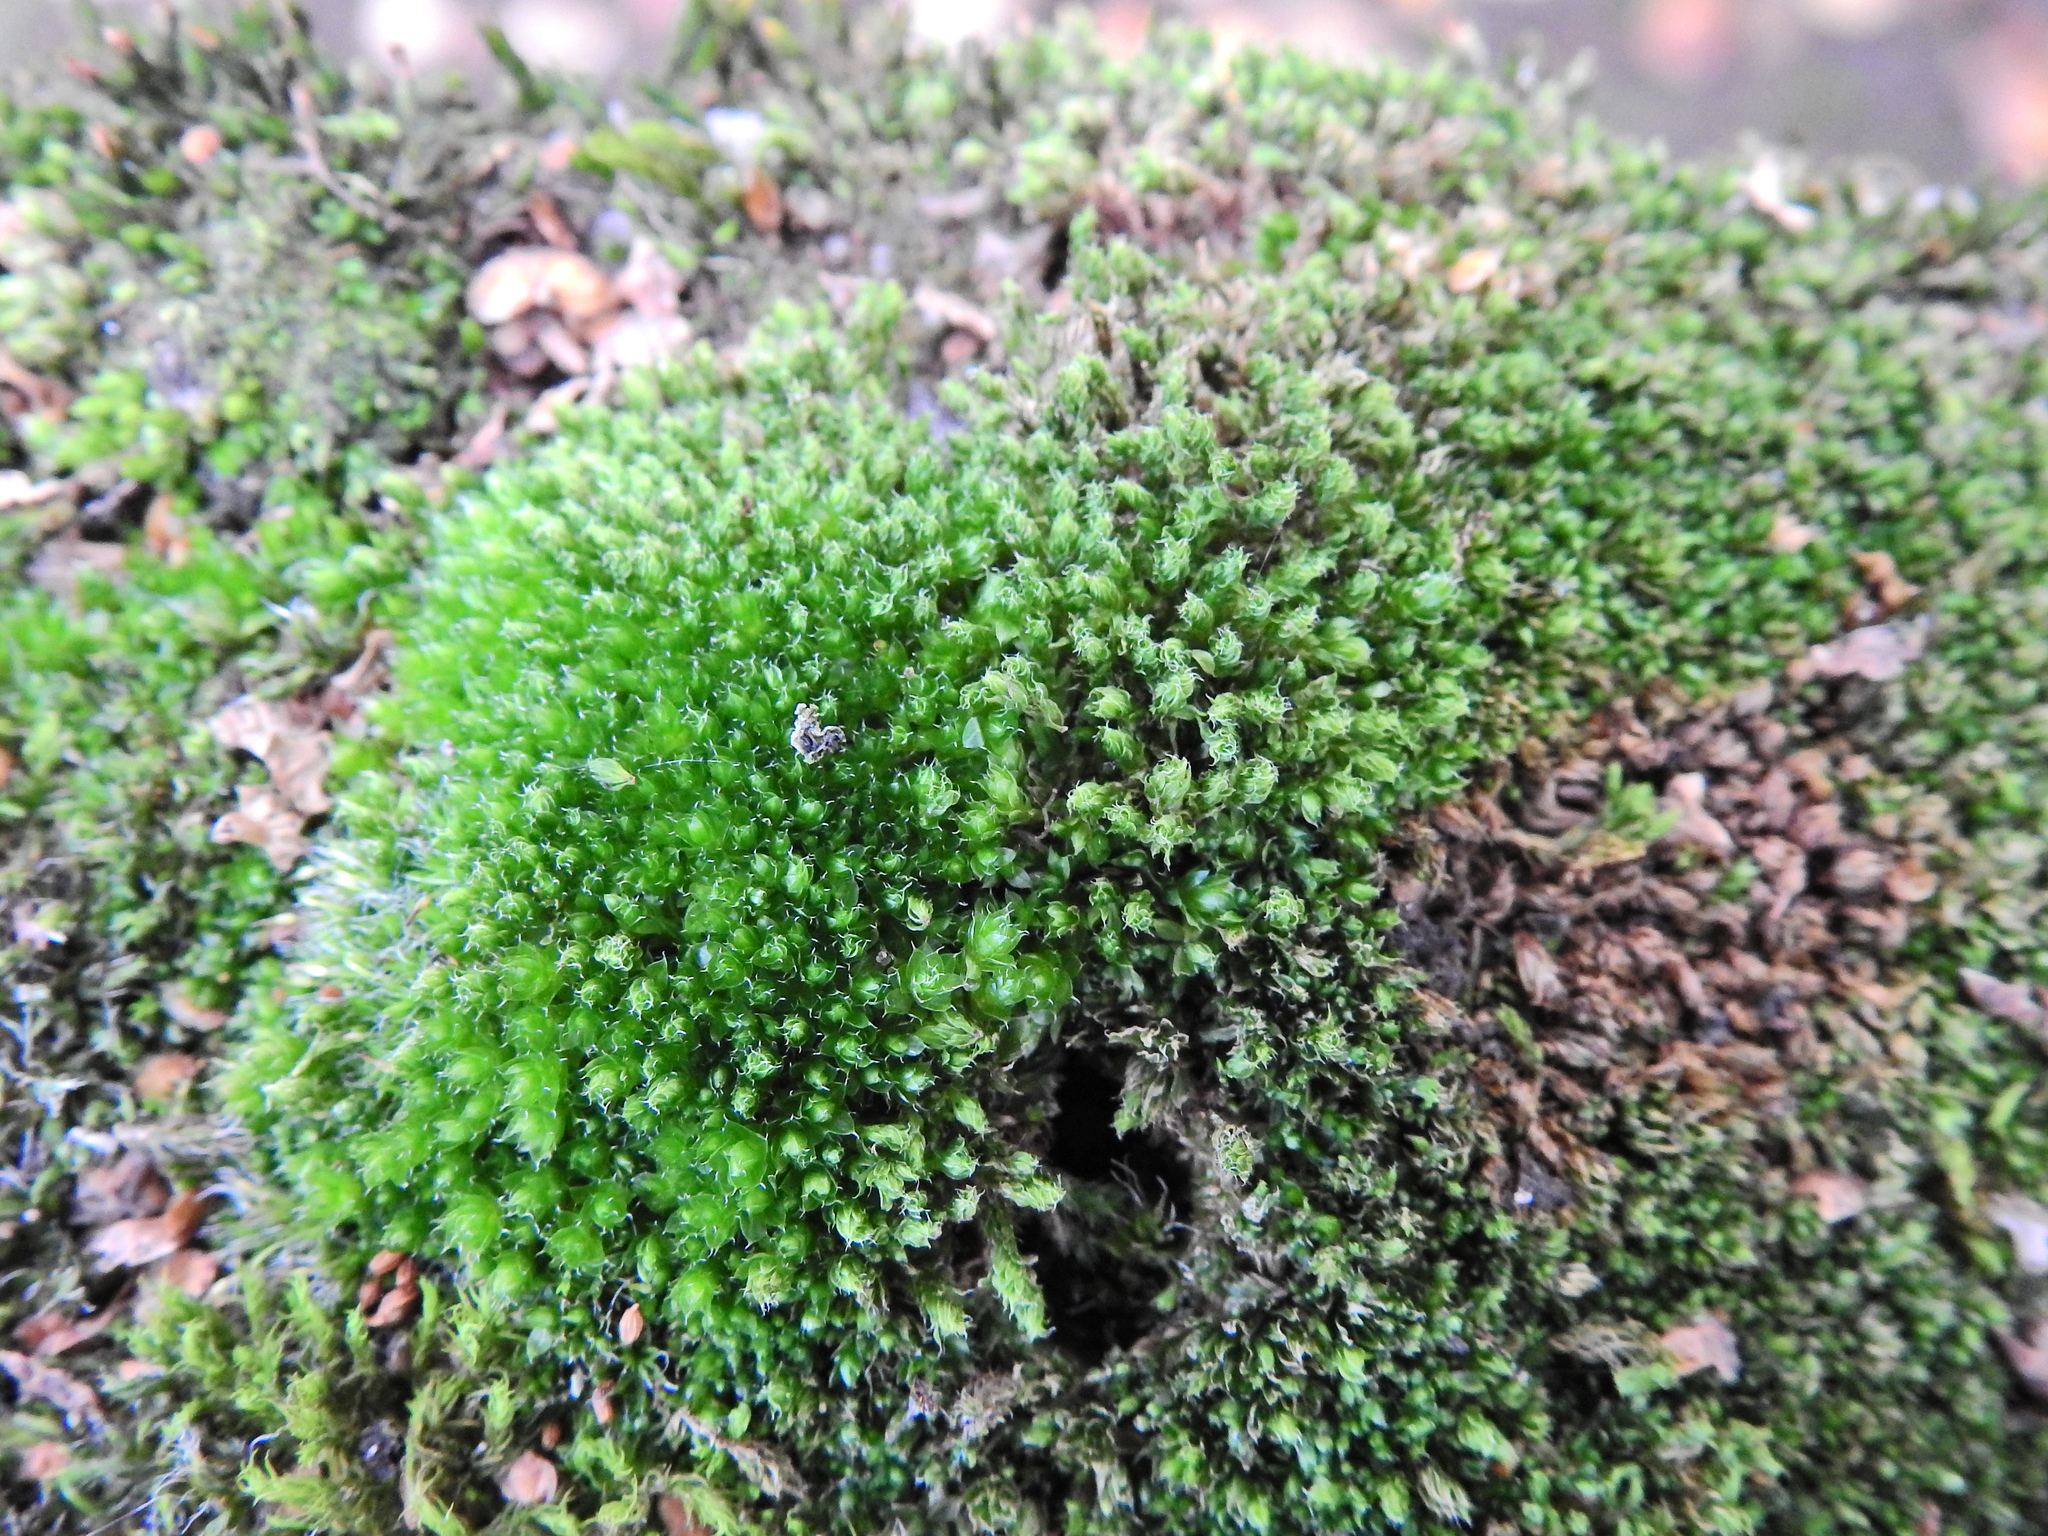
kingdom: Plantae
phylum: Bryophyta
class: Bryopsida
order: Bryales
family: Bryaceae
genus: Rosulabryum
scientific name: Rosulabryum capillare
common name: Capillary thread-moss
